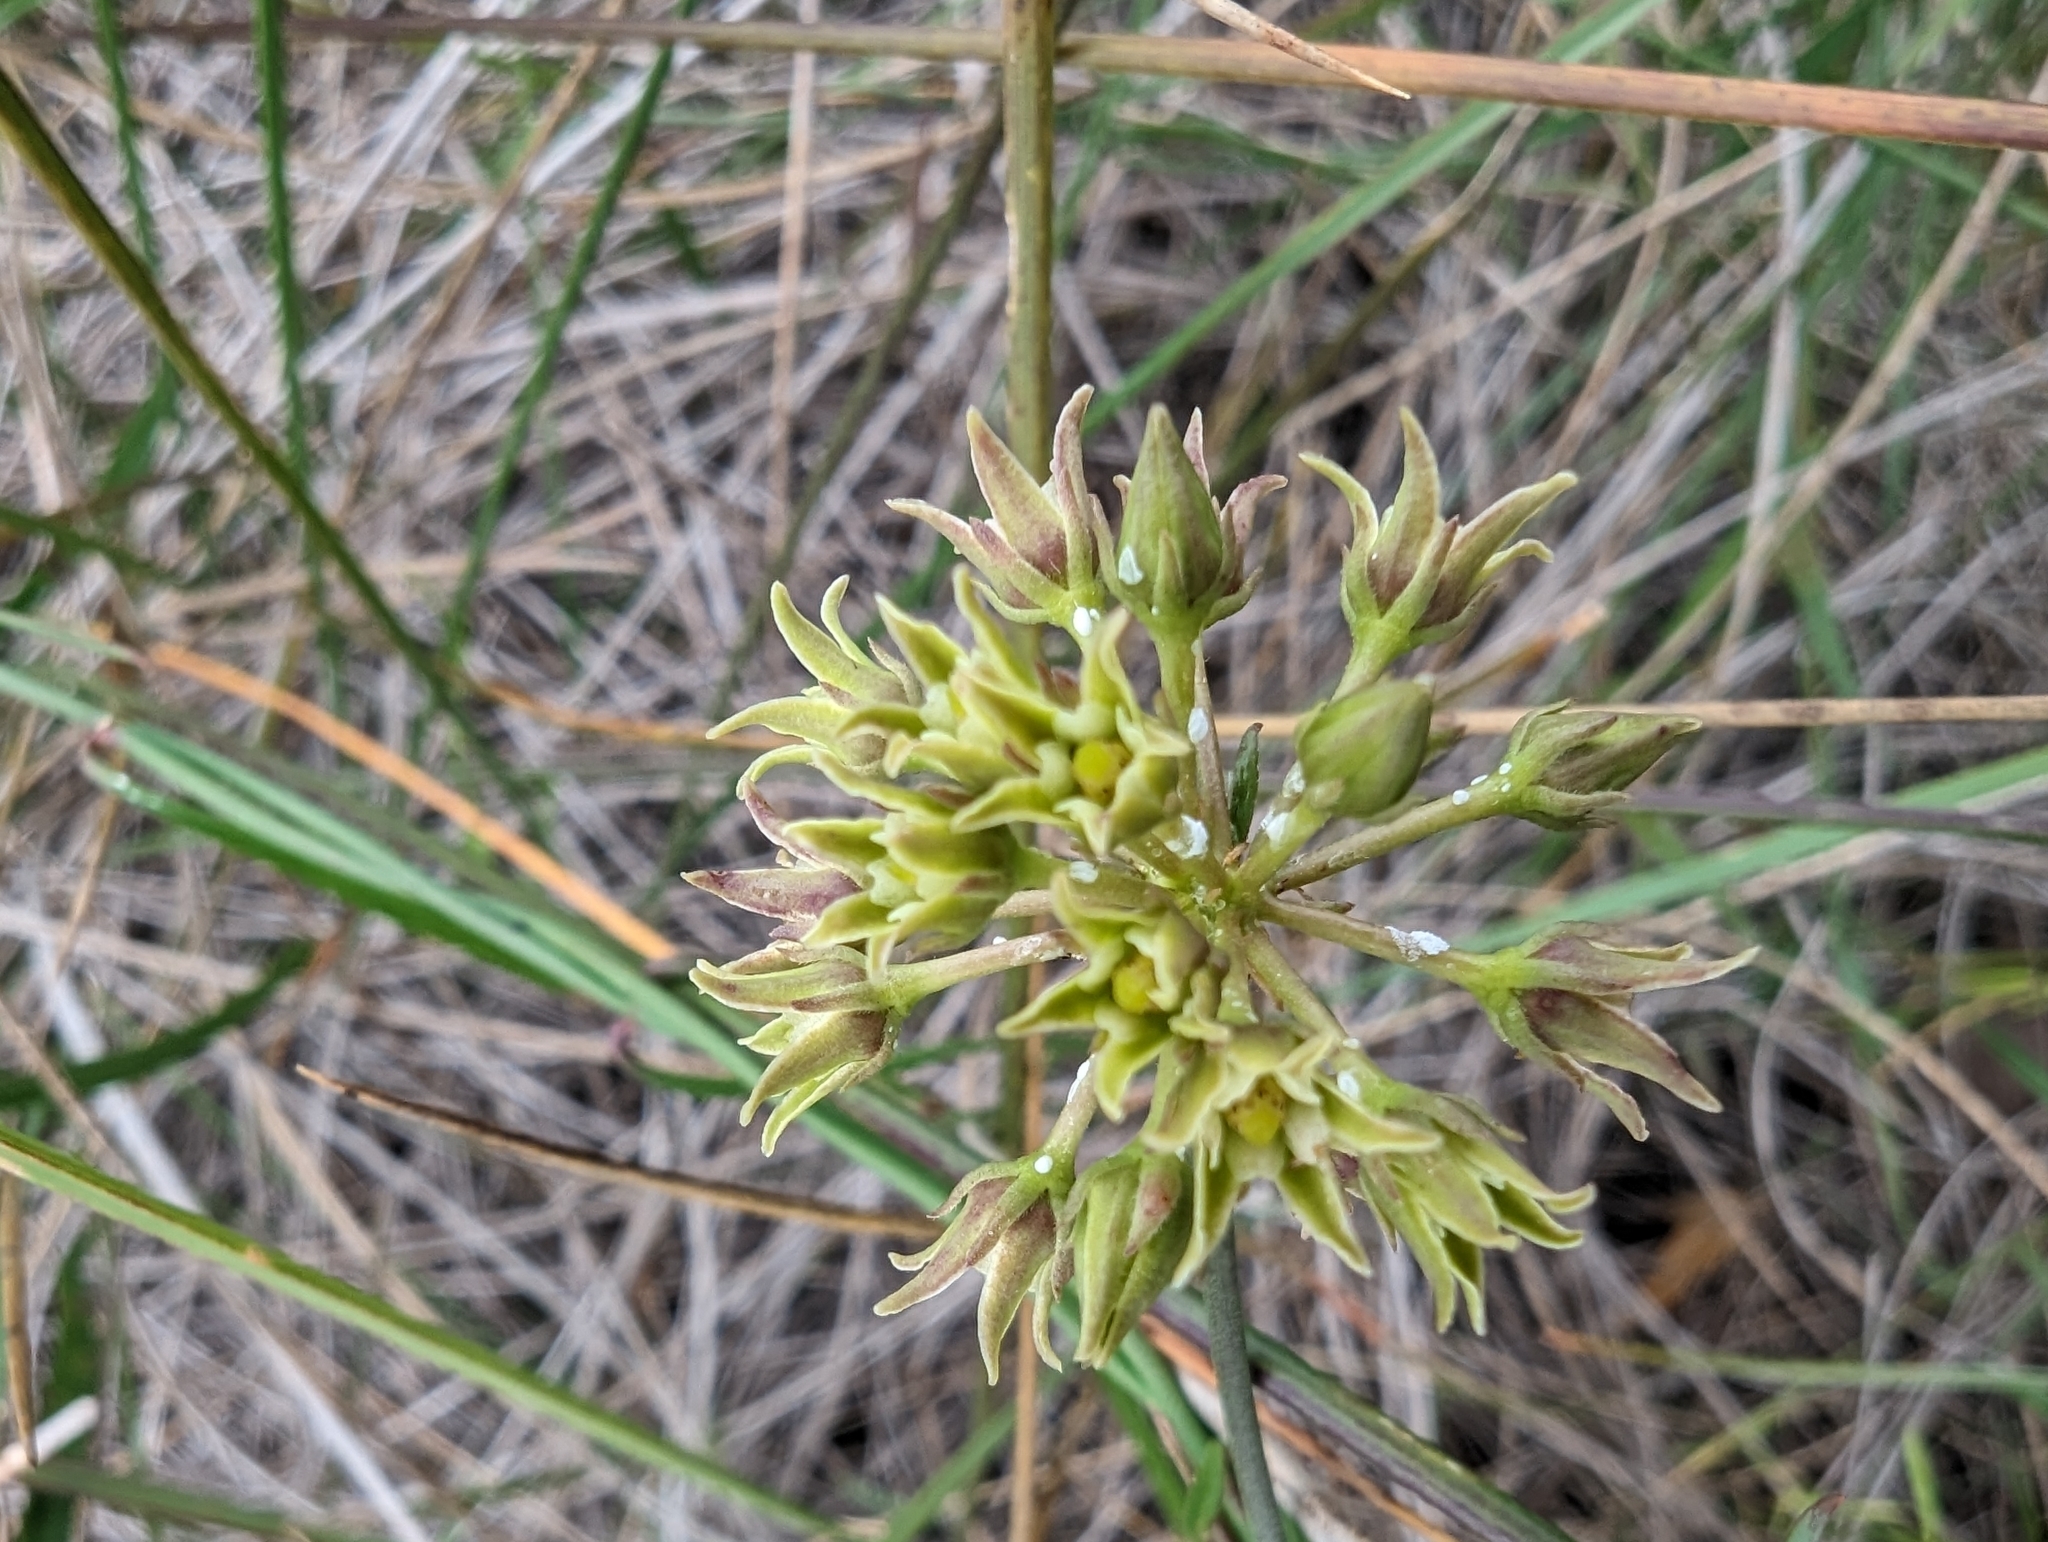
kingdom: Plantae
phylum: Tracheophyta
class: Magnoliopsida
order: Gentianales
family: Apocynaceae
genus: Pattalias
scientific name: Pattalias
